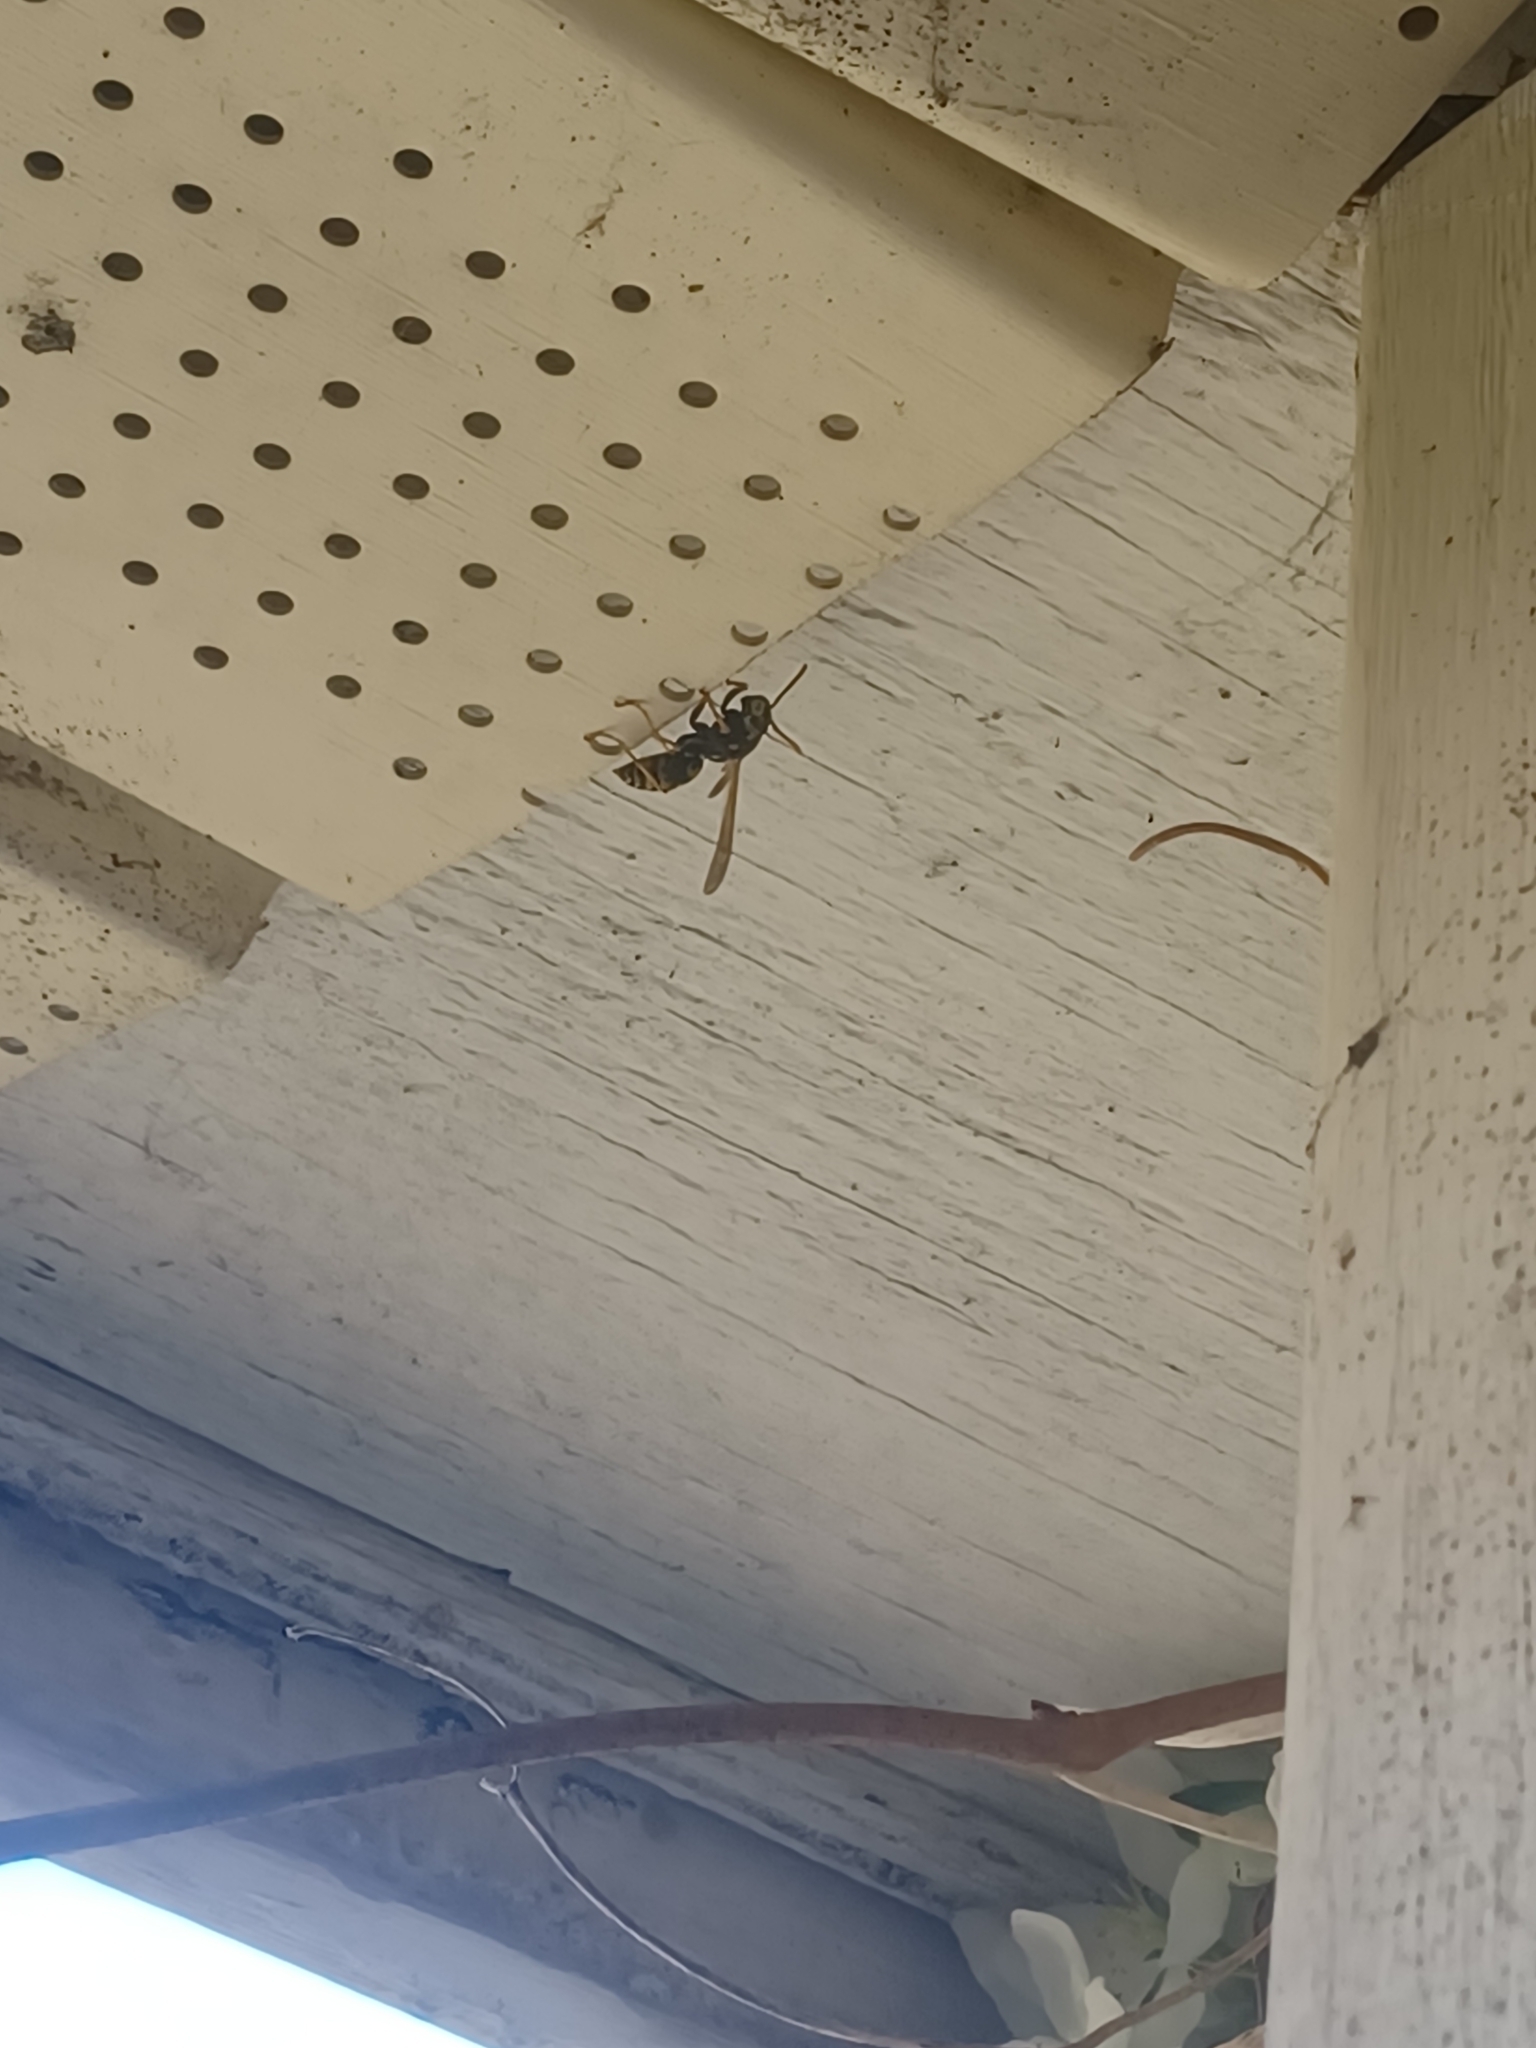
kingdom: Animalia
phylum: Arthropoda
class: Insecta
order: Hymenoptera
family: Eumenidae
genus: Polistes
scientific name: Polistes dominula
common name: Paper wasp
